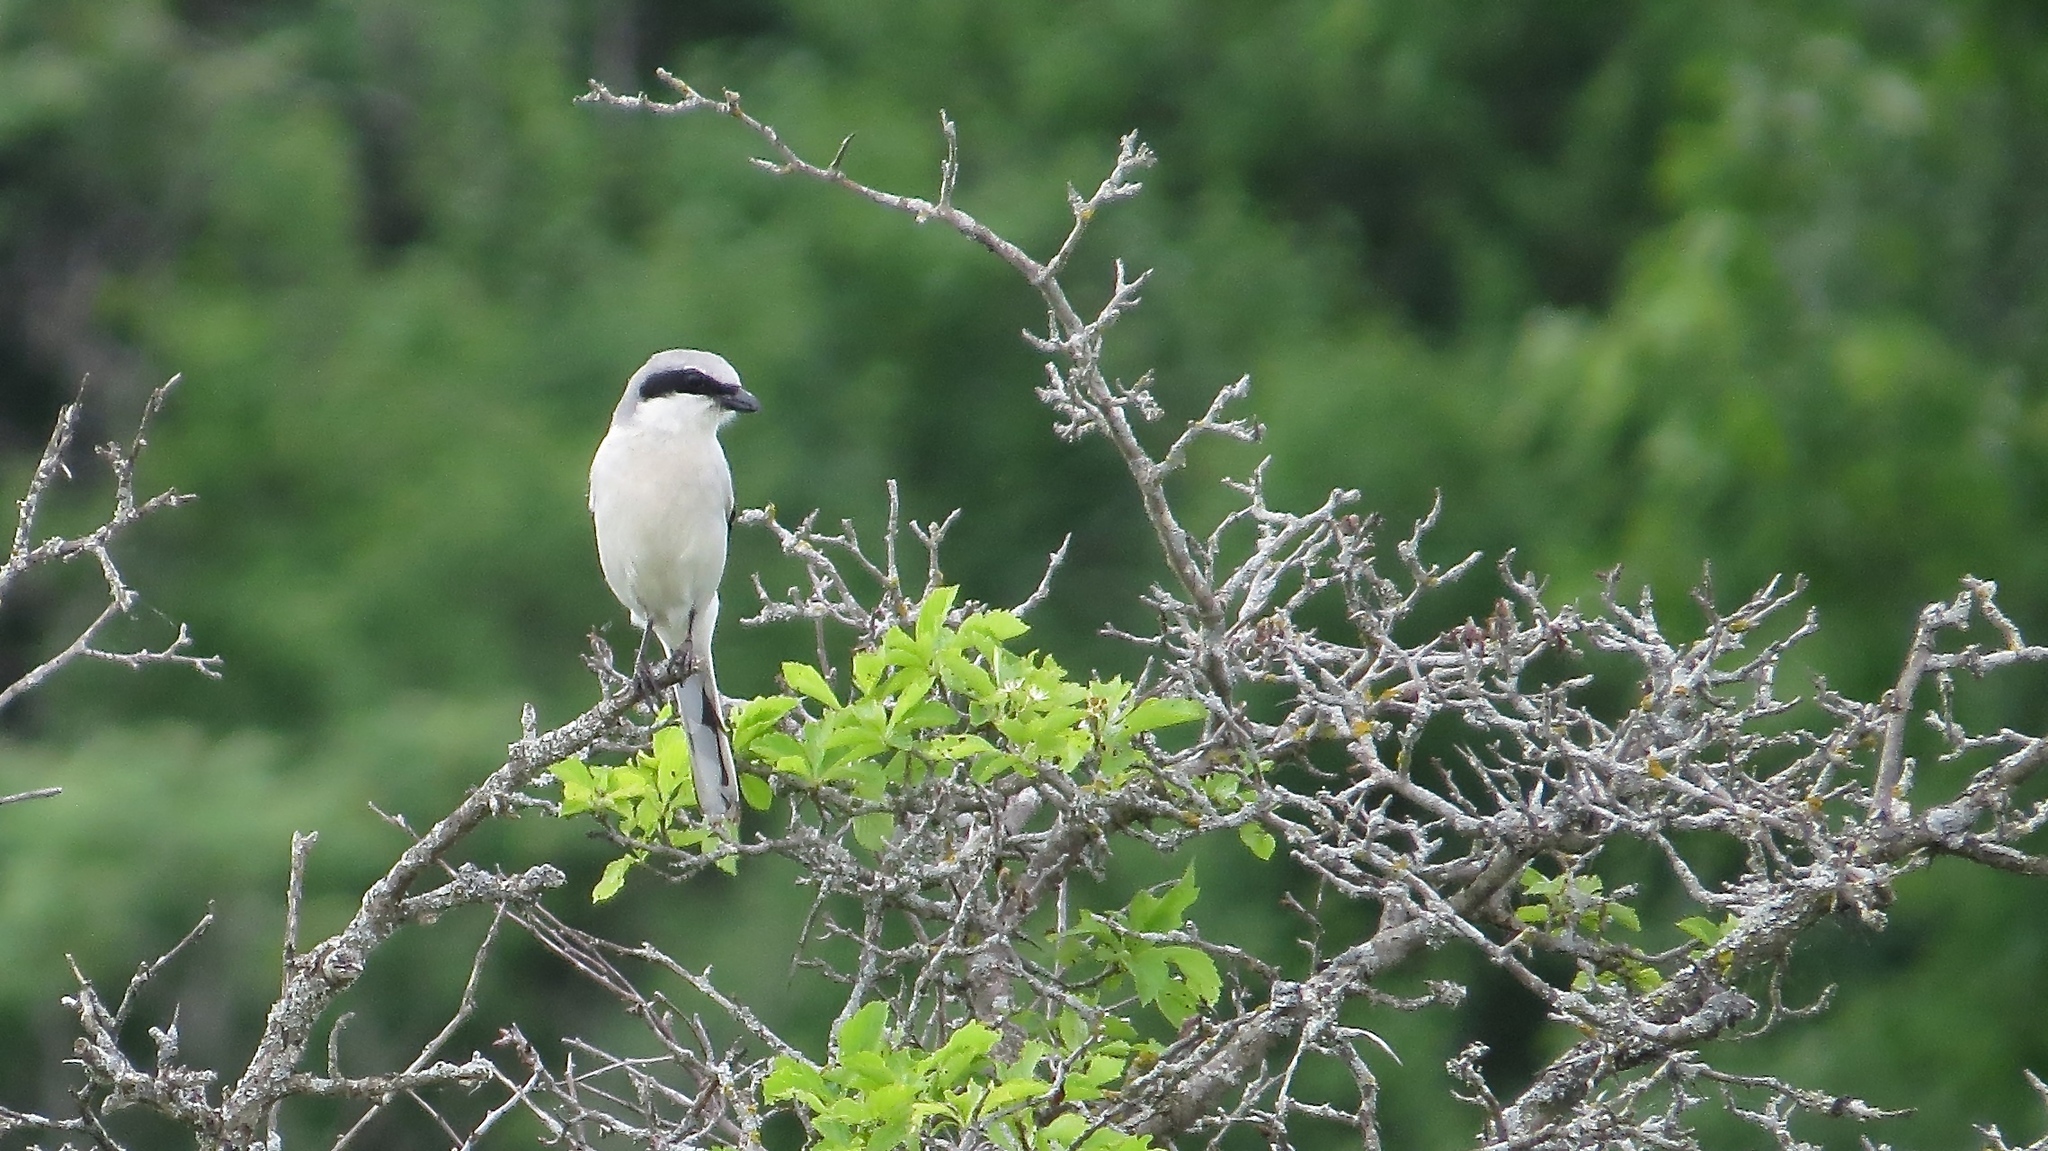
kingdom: Animalia
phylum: Chordata
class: Aves
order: Passeriformes
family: Laniidae
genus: Lanius
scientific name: Lanius ludovicianus
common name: Loggerhead shrike
